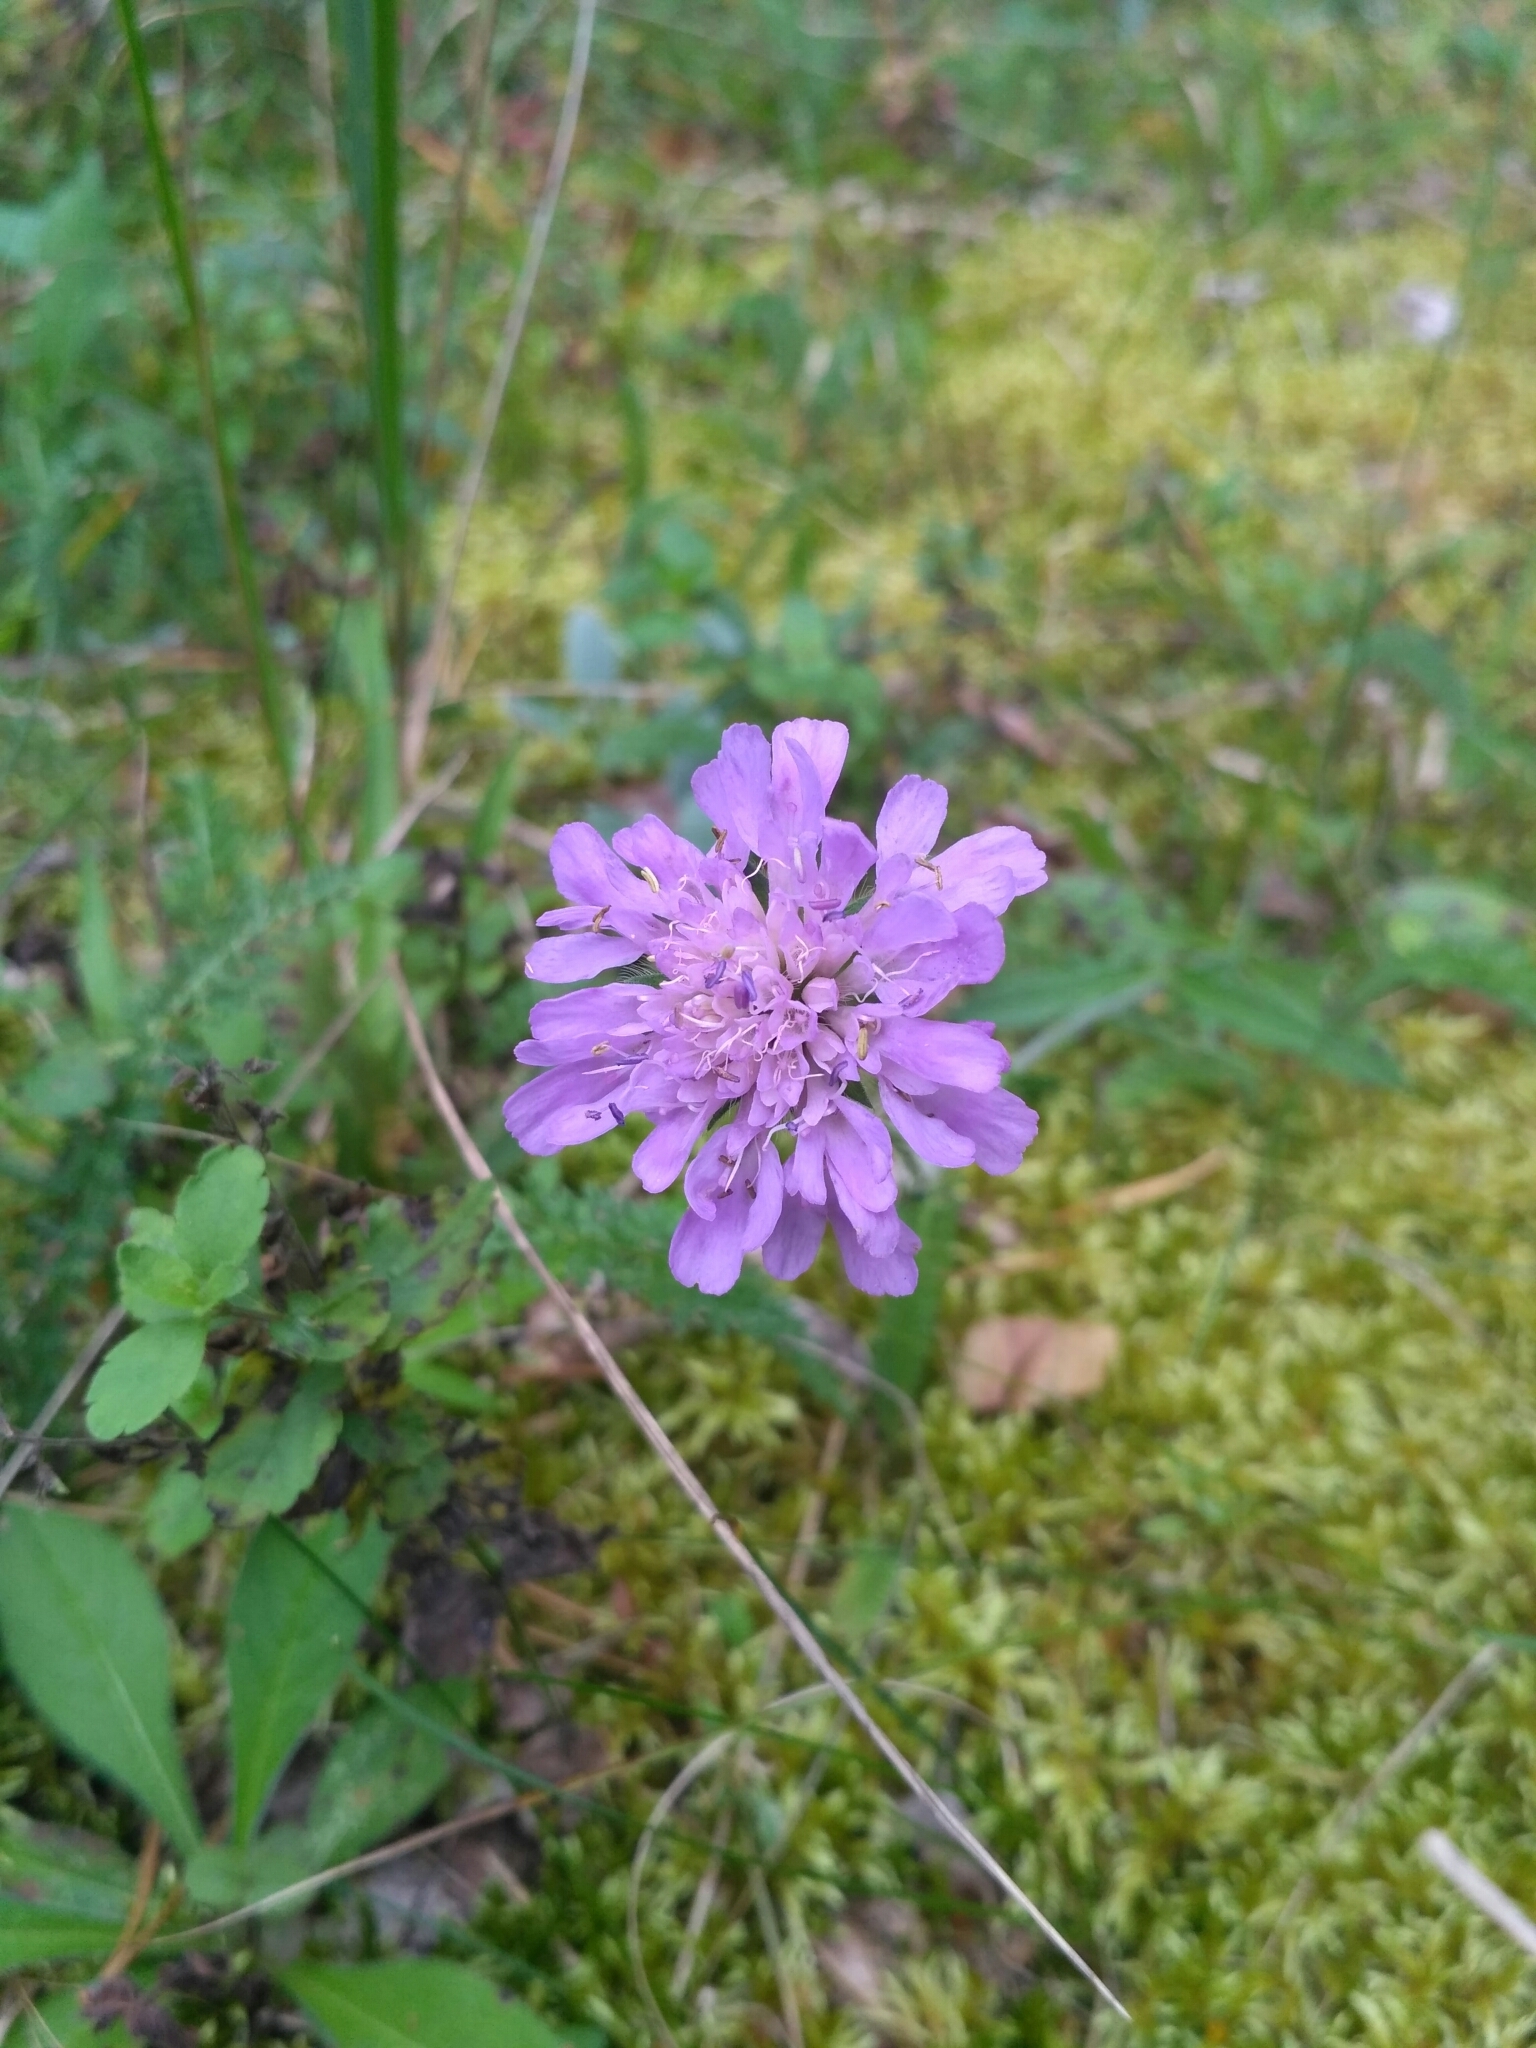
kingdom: Plantae
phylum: Tracheophyta
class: Magnoliopsida
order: Dipsacales
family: Caprifoliaceae
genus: Knautia
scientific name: Knautia arvensis
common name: Field scabiosa
